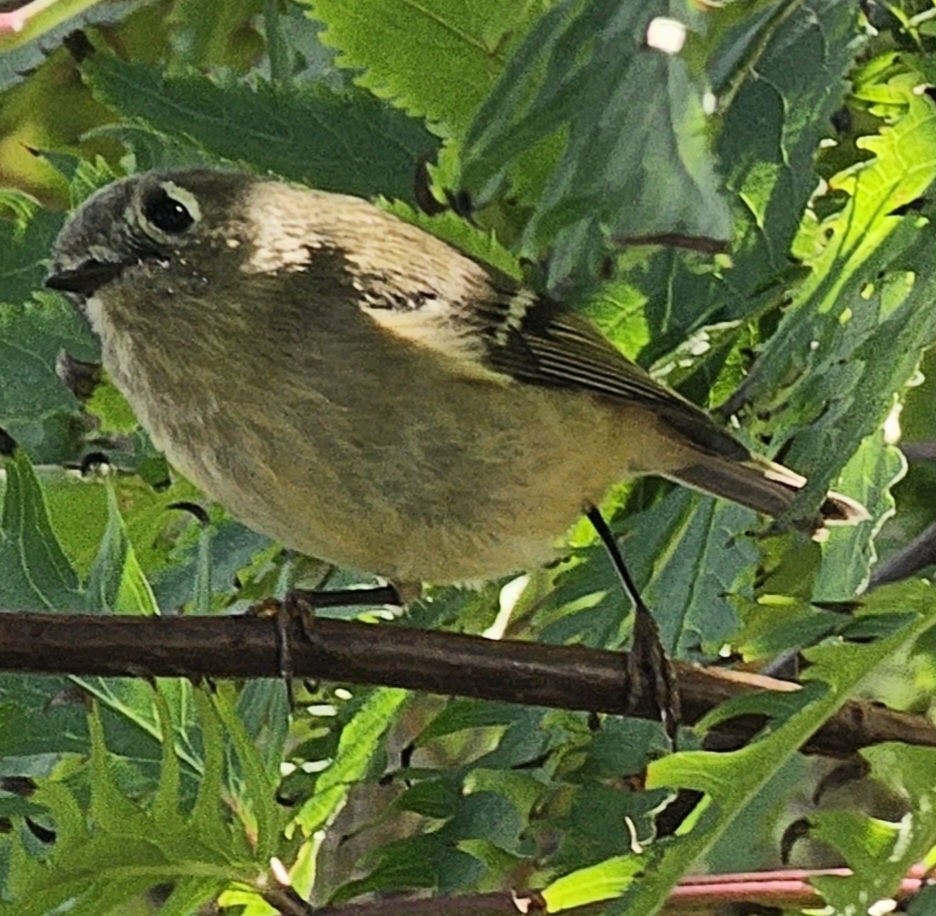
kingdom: Animalia
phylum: Chordata
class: Aves
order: Passeriformes
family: Regulidae
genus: Regulus
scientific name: Regulus calendula
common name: Ruby-crowned kinglet
